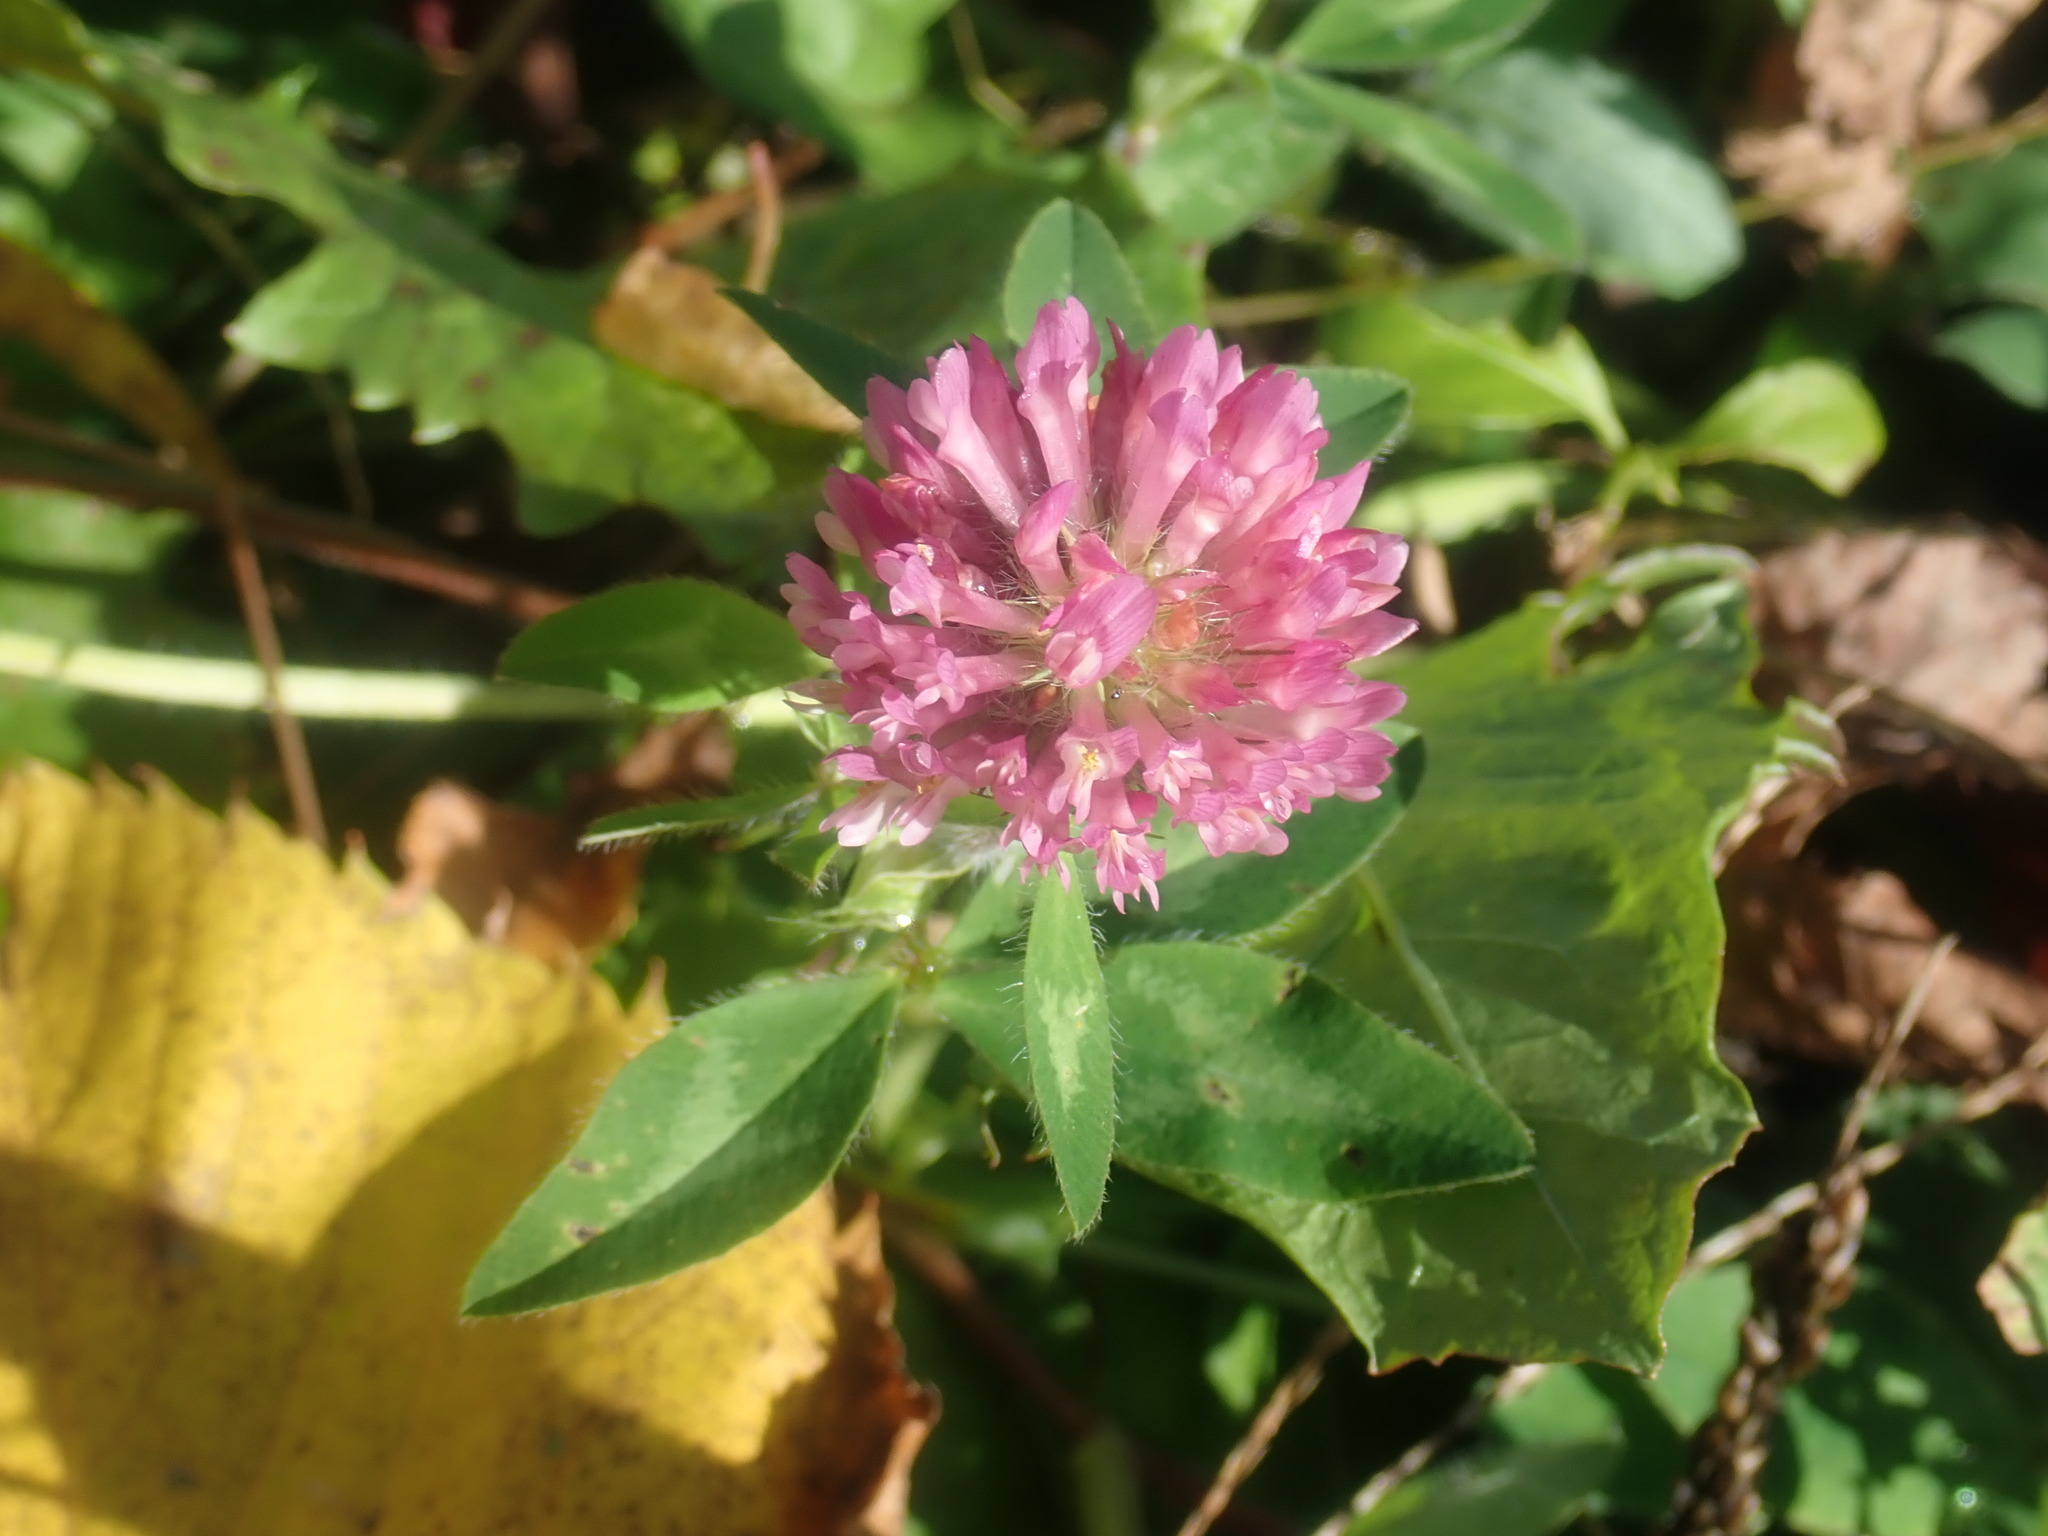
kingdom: Plantae
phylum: Tracheophyta
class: Magnoliopsida
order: Fabales
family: Fabaceae
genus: Trifolium
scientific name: Trifolium pratense
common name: Red clover
